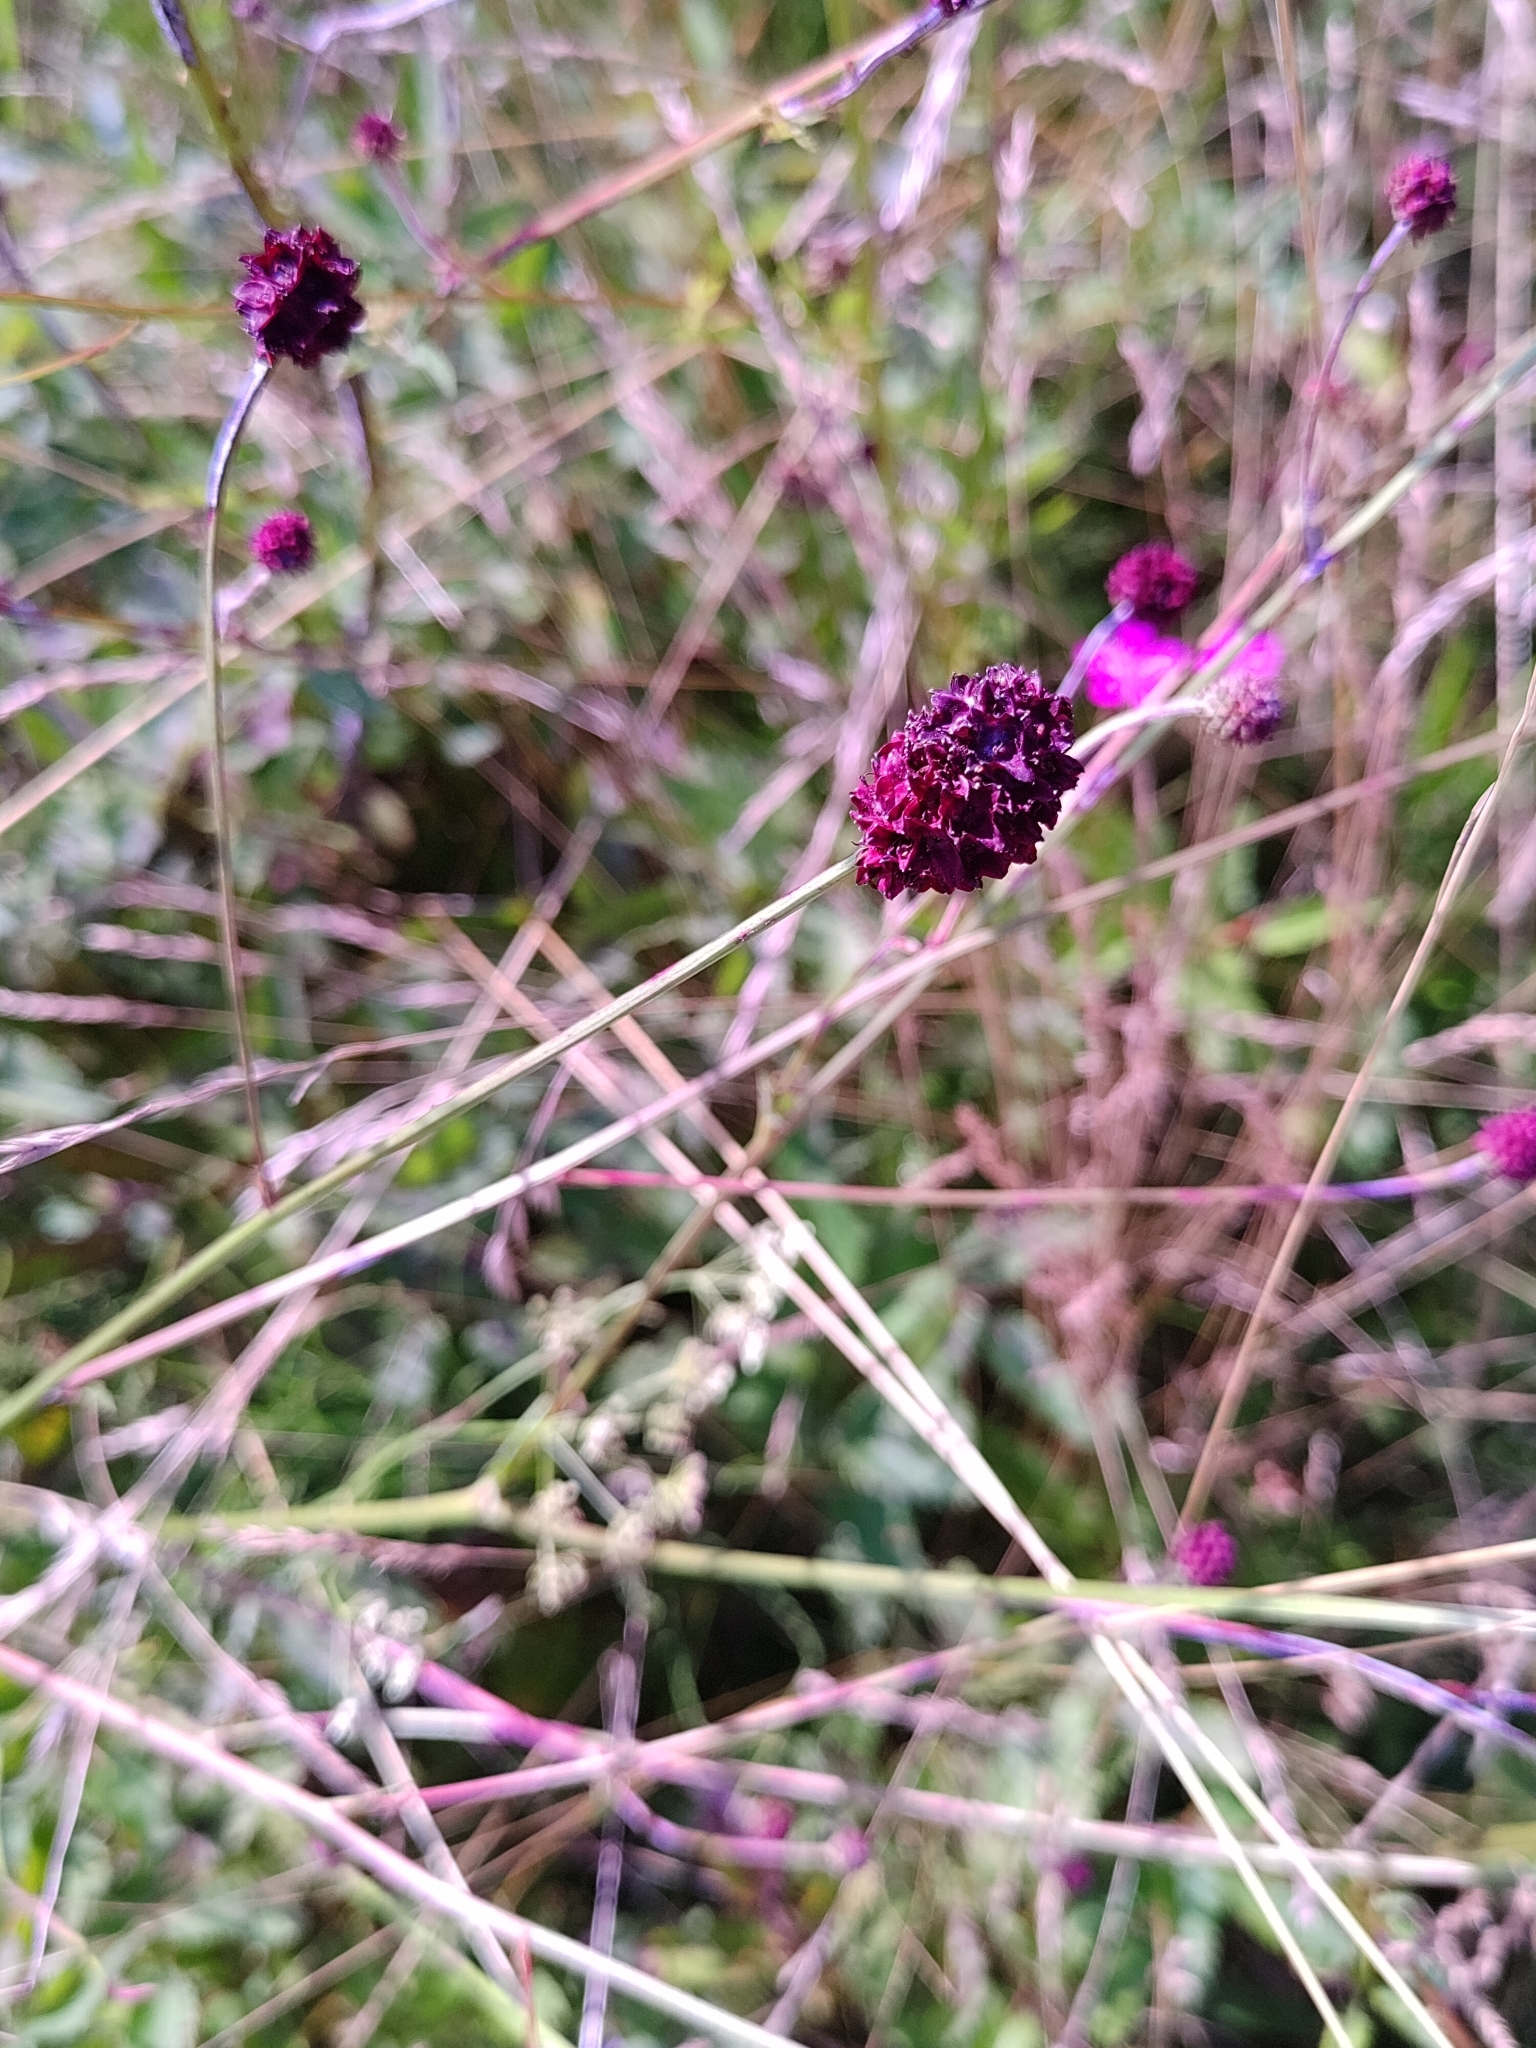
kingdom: Plantae
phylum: Tracheophyta
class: Magnoliopsida
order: Rosales
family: Rosaceae
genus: Sanguisorba
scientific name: Sanguisorba officinalis
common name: Great burnet
